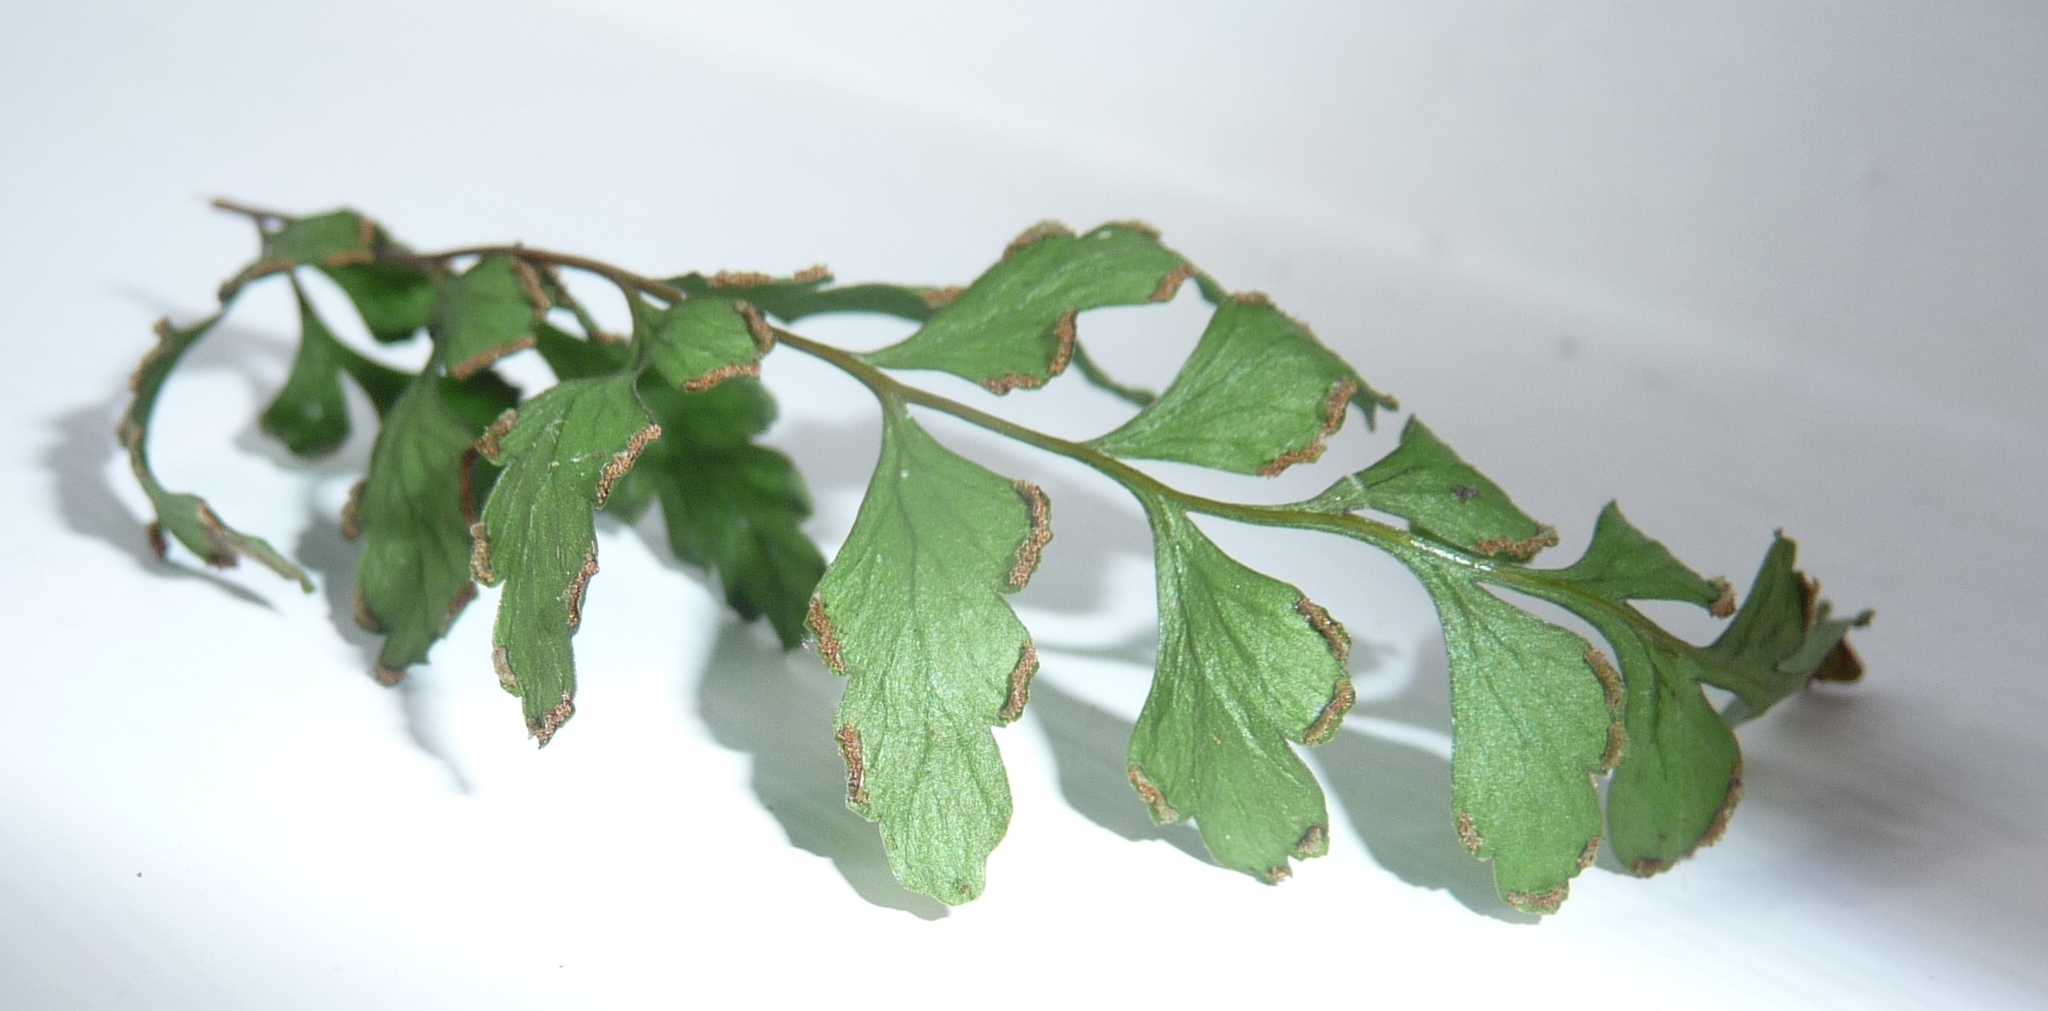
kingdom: Plantae
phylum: Tracheophyta
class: Polypodiopsida
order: Polypodiales
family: Lindsaeaceae
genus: Lindsaea
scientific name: Lindsaea trichomanoides
